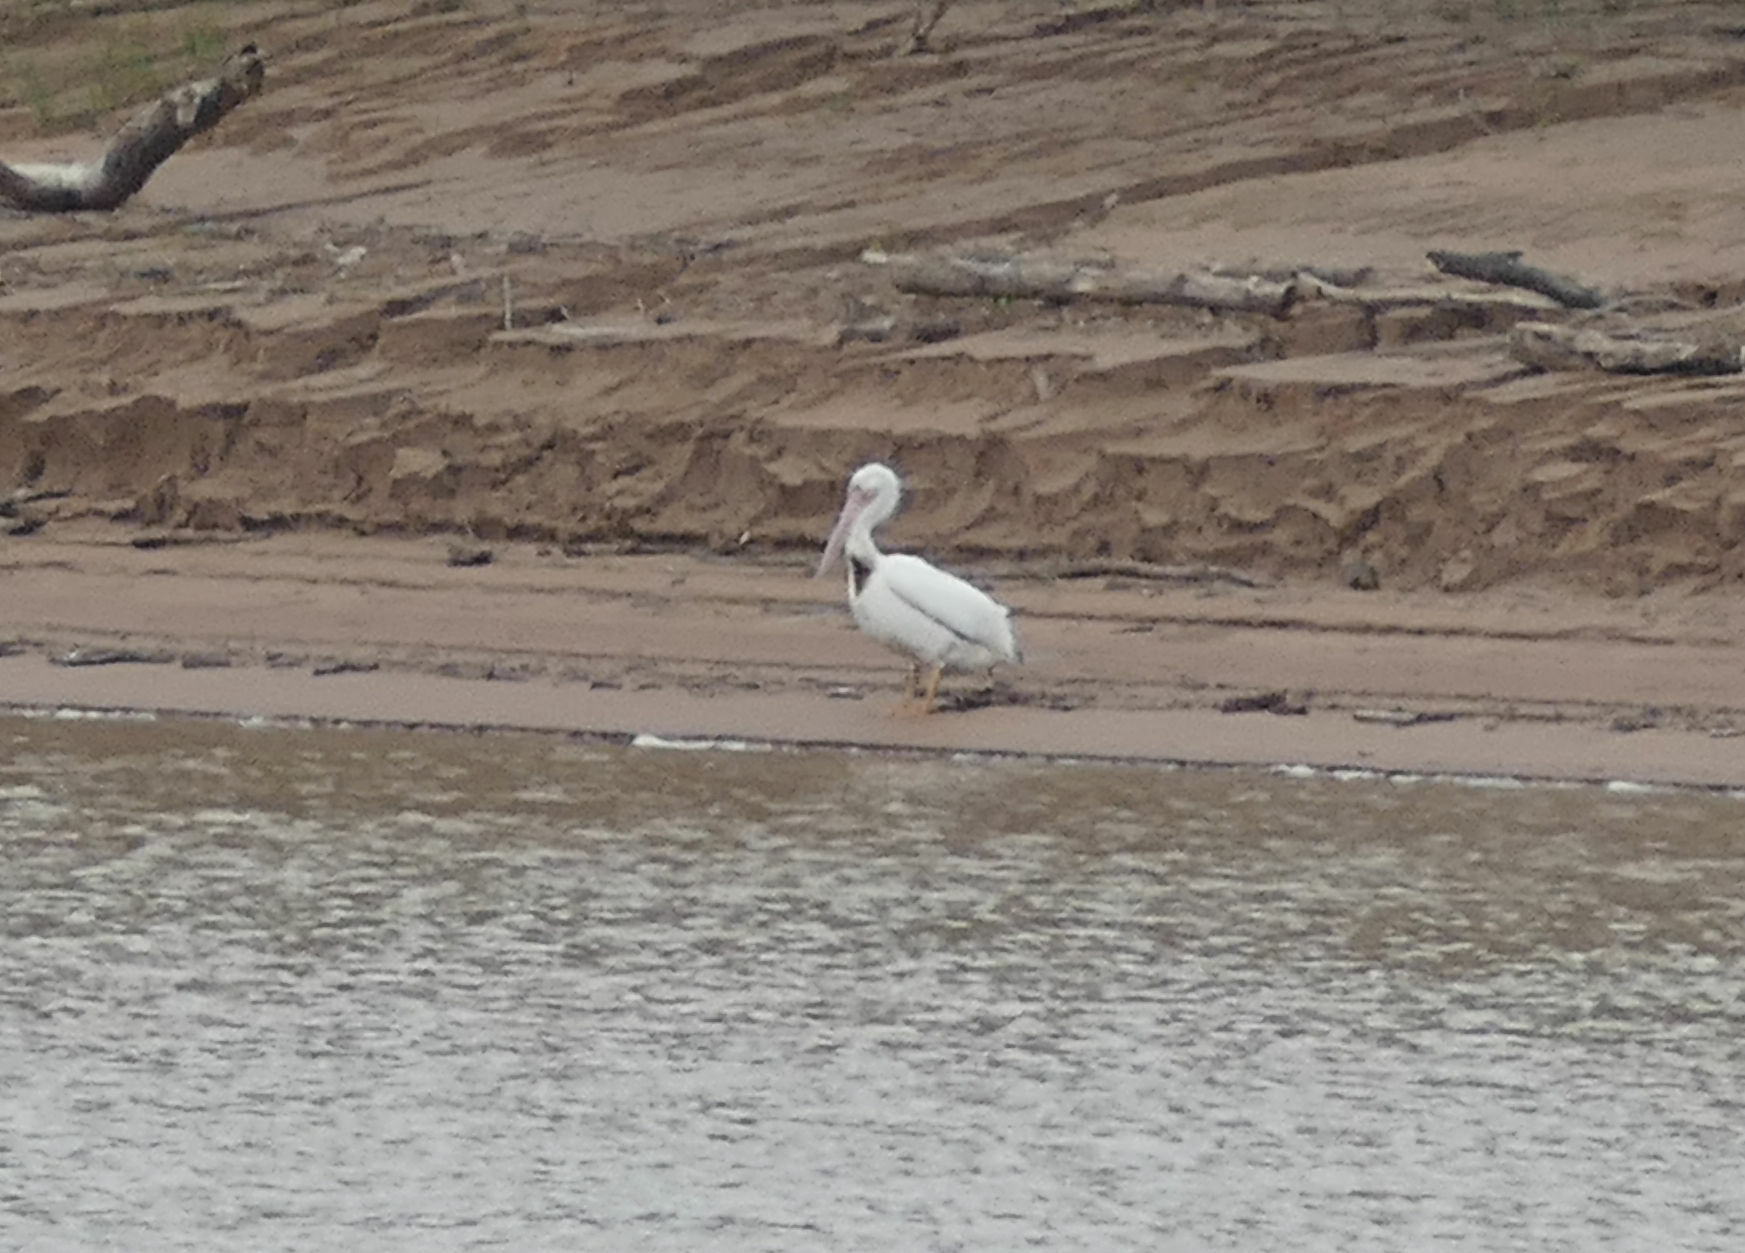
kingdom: Animalia
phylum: Chordata
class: Aves
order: Pelecaniformes
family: Pelecanidae
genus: Pelecanus
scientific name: Pelecanus erythrorhynchos
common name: American white pelican
